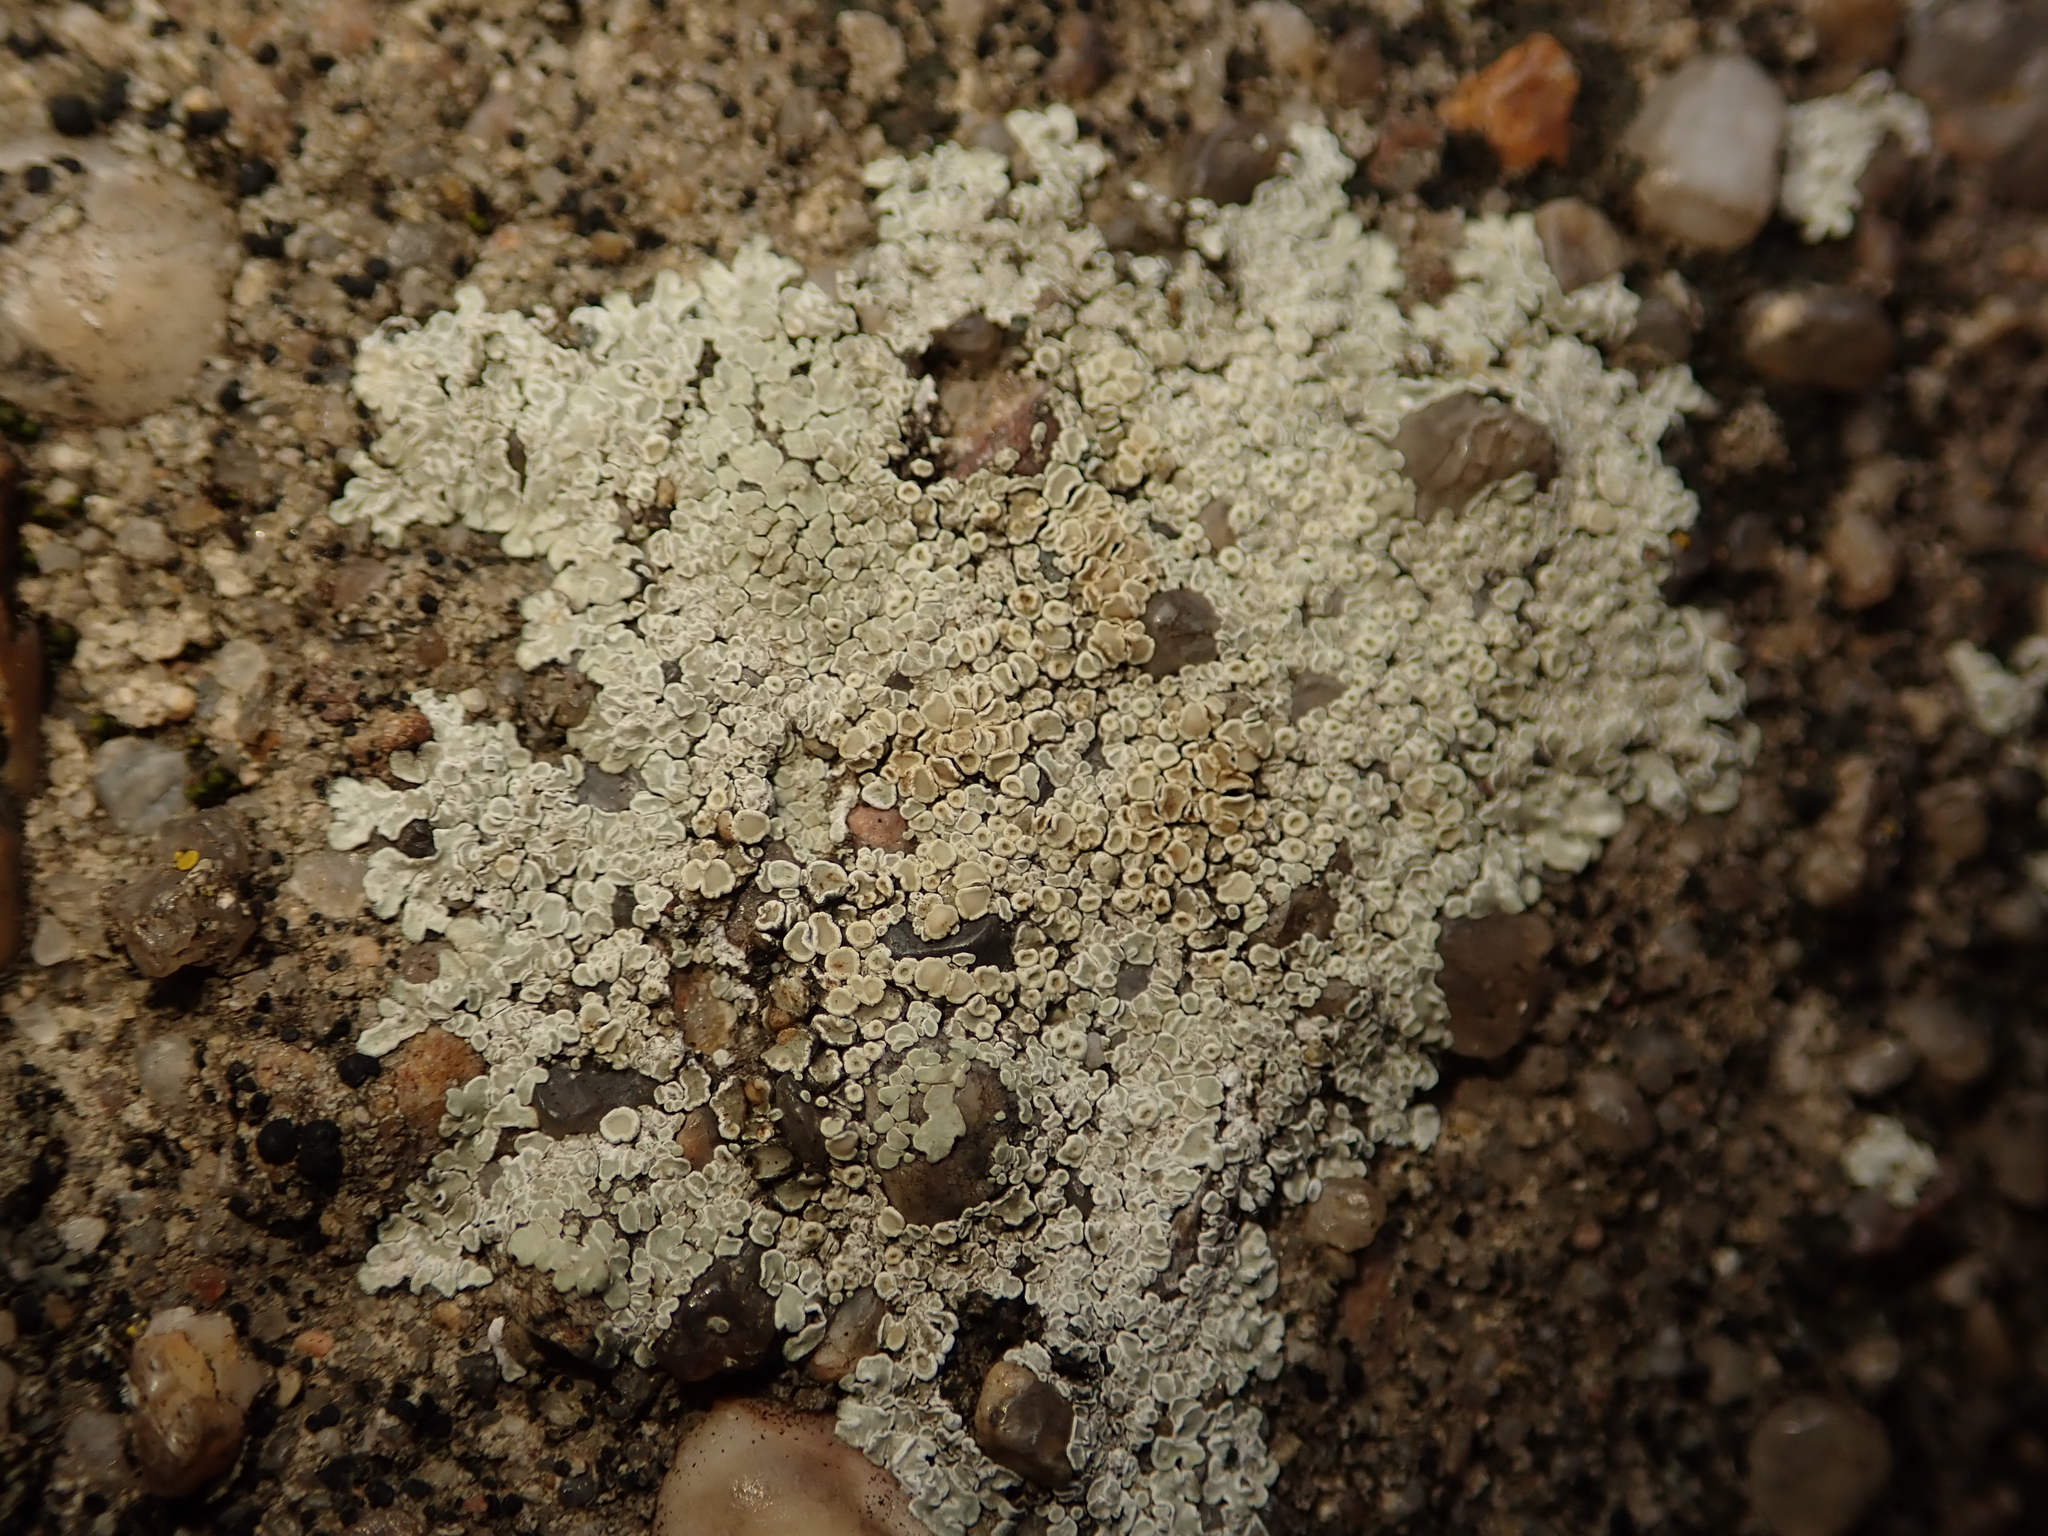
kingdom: Fungi
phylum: Ascomycota
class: Lecanoromycetes
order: Lecanorales
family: Lecanoraceae
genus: Protoparmeliopsis
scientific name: Protoparmeliopsis muralis
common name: Stonewall rim lichen
